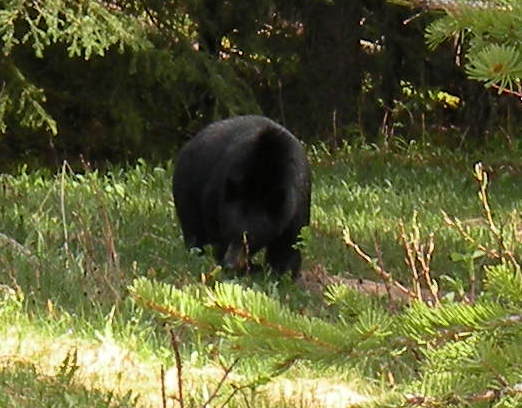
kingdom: Animalia
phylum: Chordata
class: Mammalia
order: Carnivora
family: Ursidae
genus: Ursus
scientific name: Ursus americanus
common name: American black bear
